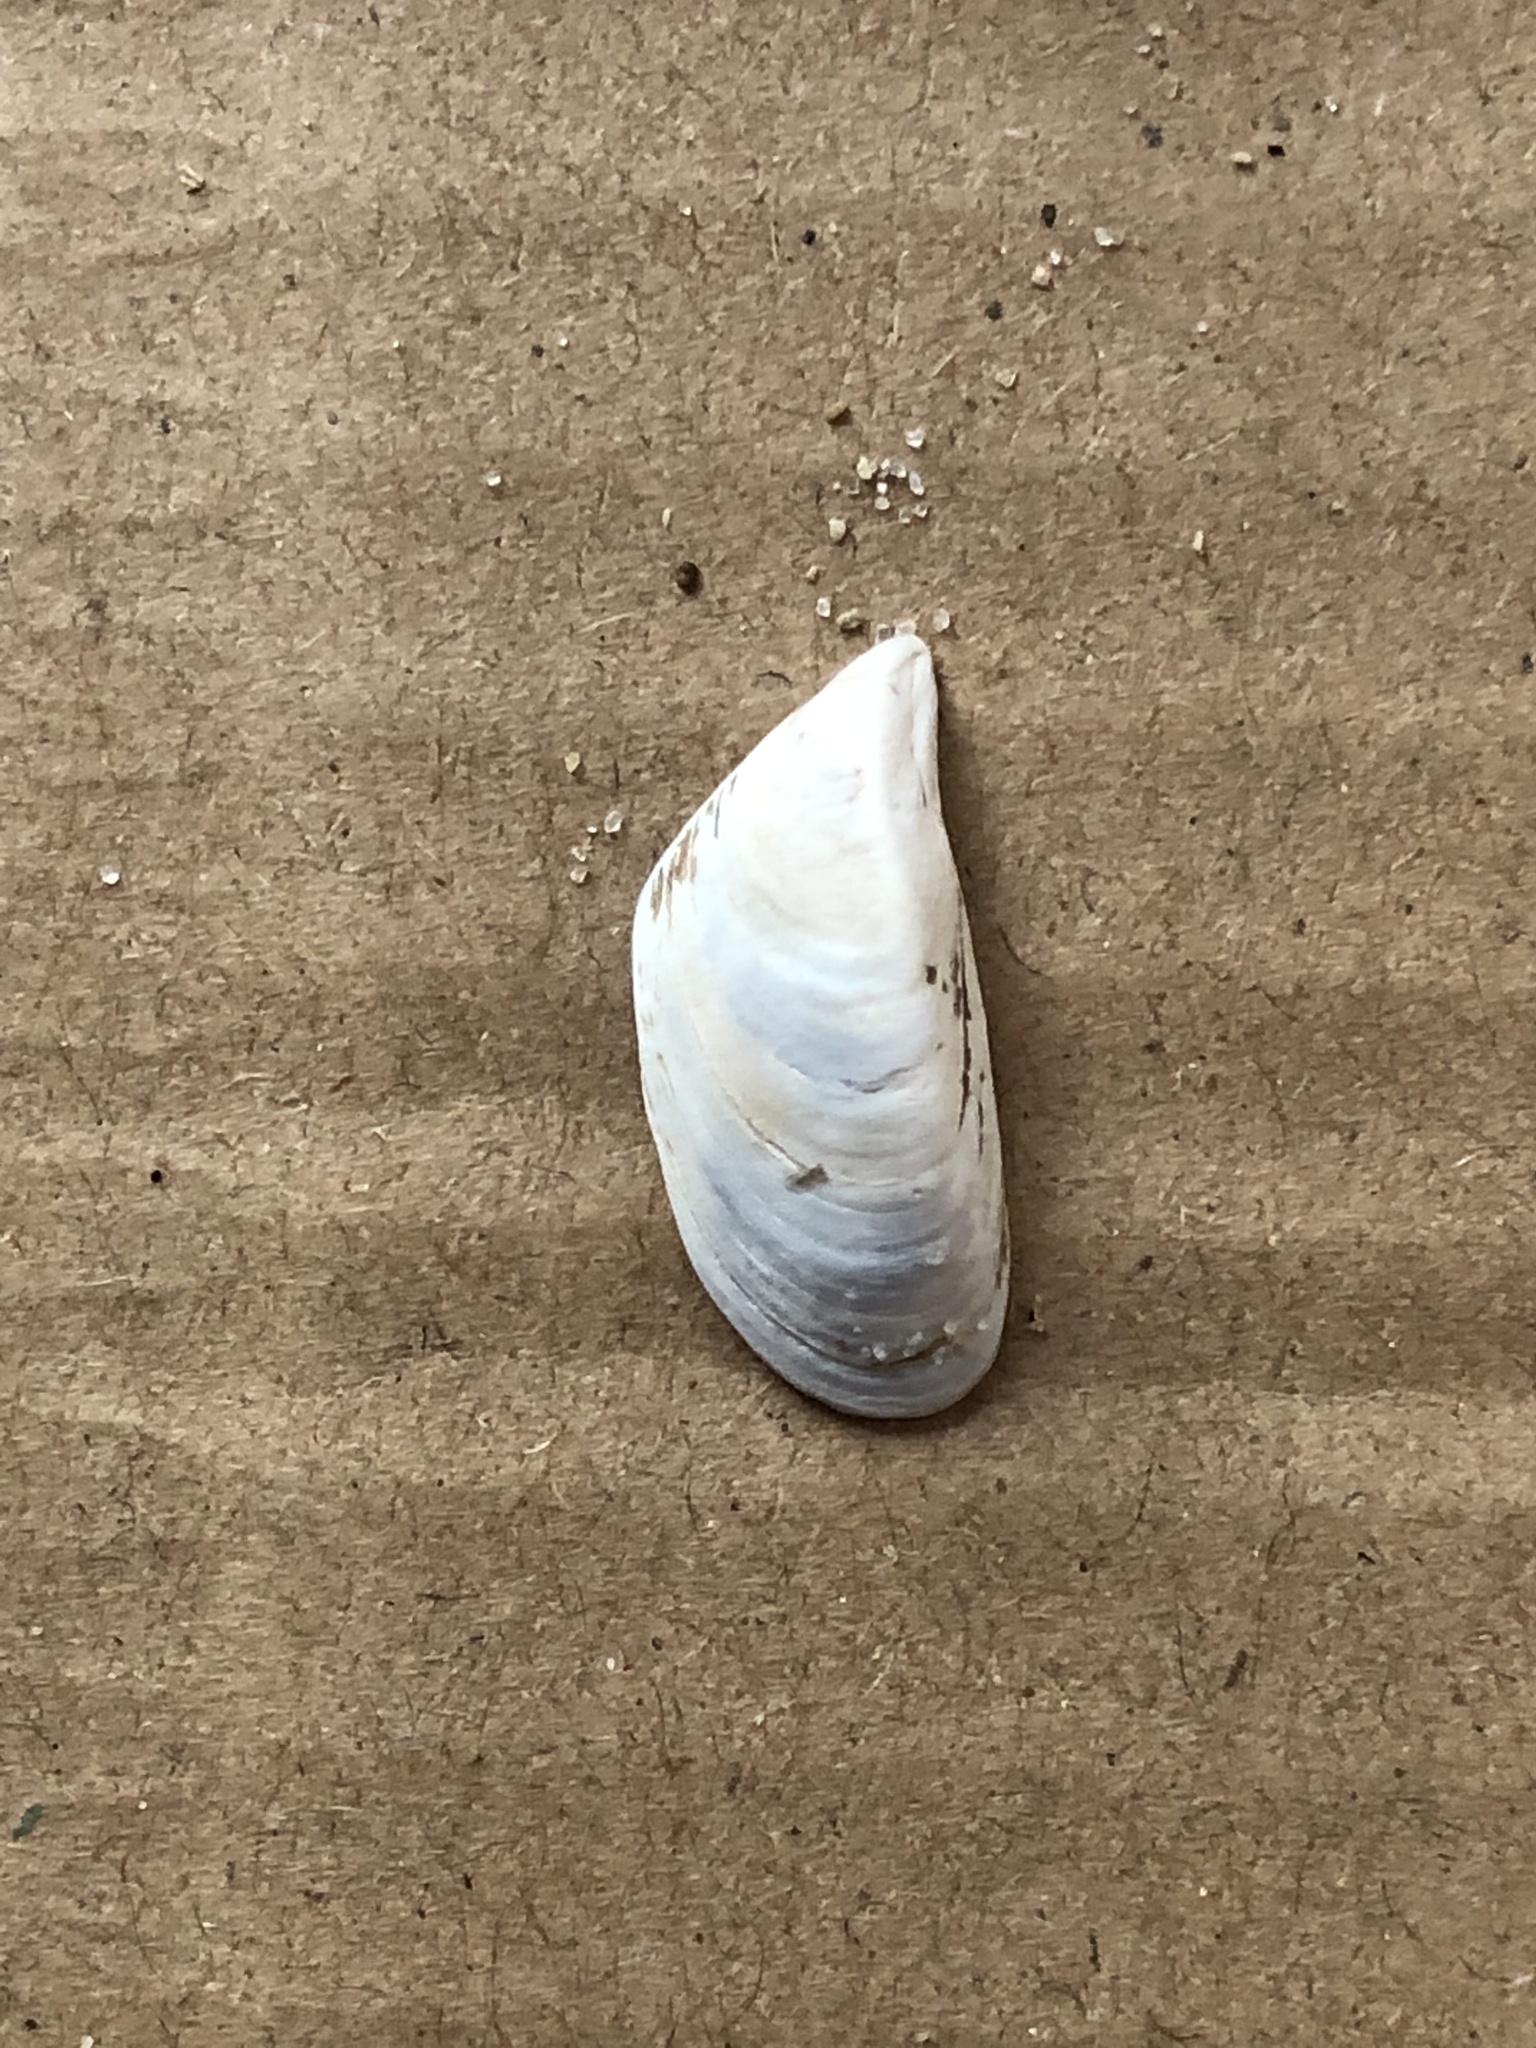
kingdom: Animalia
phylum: Mollusca
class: Bivalvia
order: Myida
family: Dreissenidae
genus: Dreissena
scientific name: Dreissena polymorpha
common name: Zebra mussel
